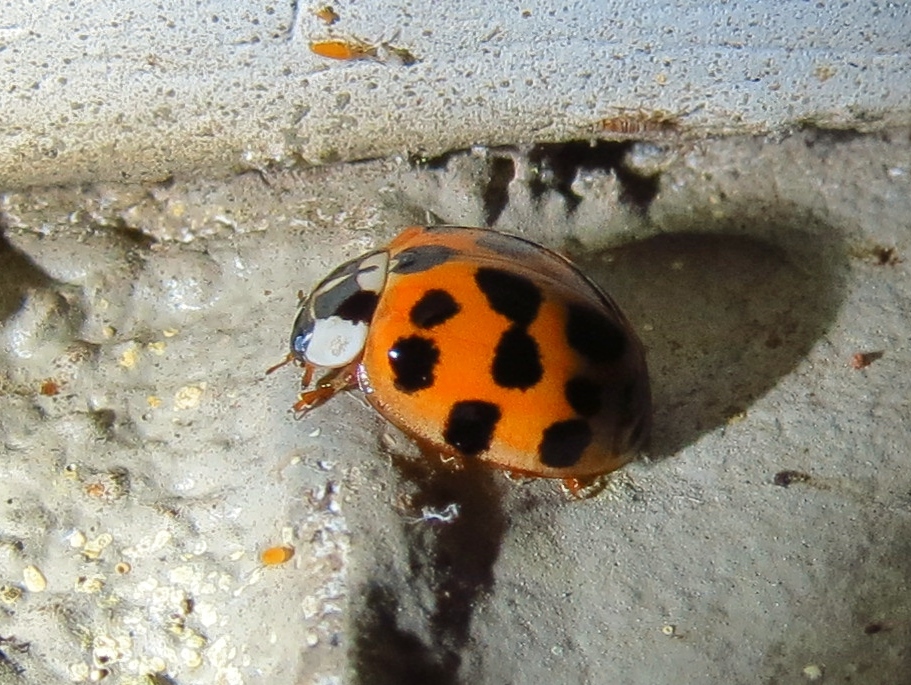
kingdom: Animalia
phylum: Arthropoda
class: Insecta
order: Coleoptera
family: Coccinellidae
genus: Harmonia
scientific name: Harmonia axyridis
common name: Harlequin ladybird
